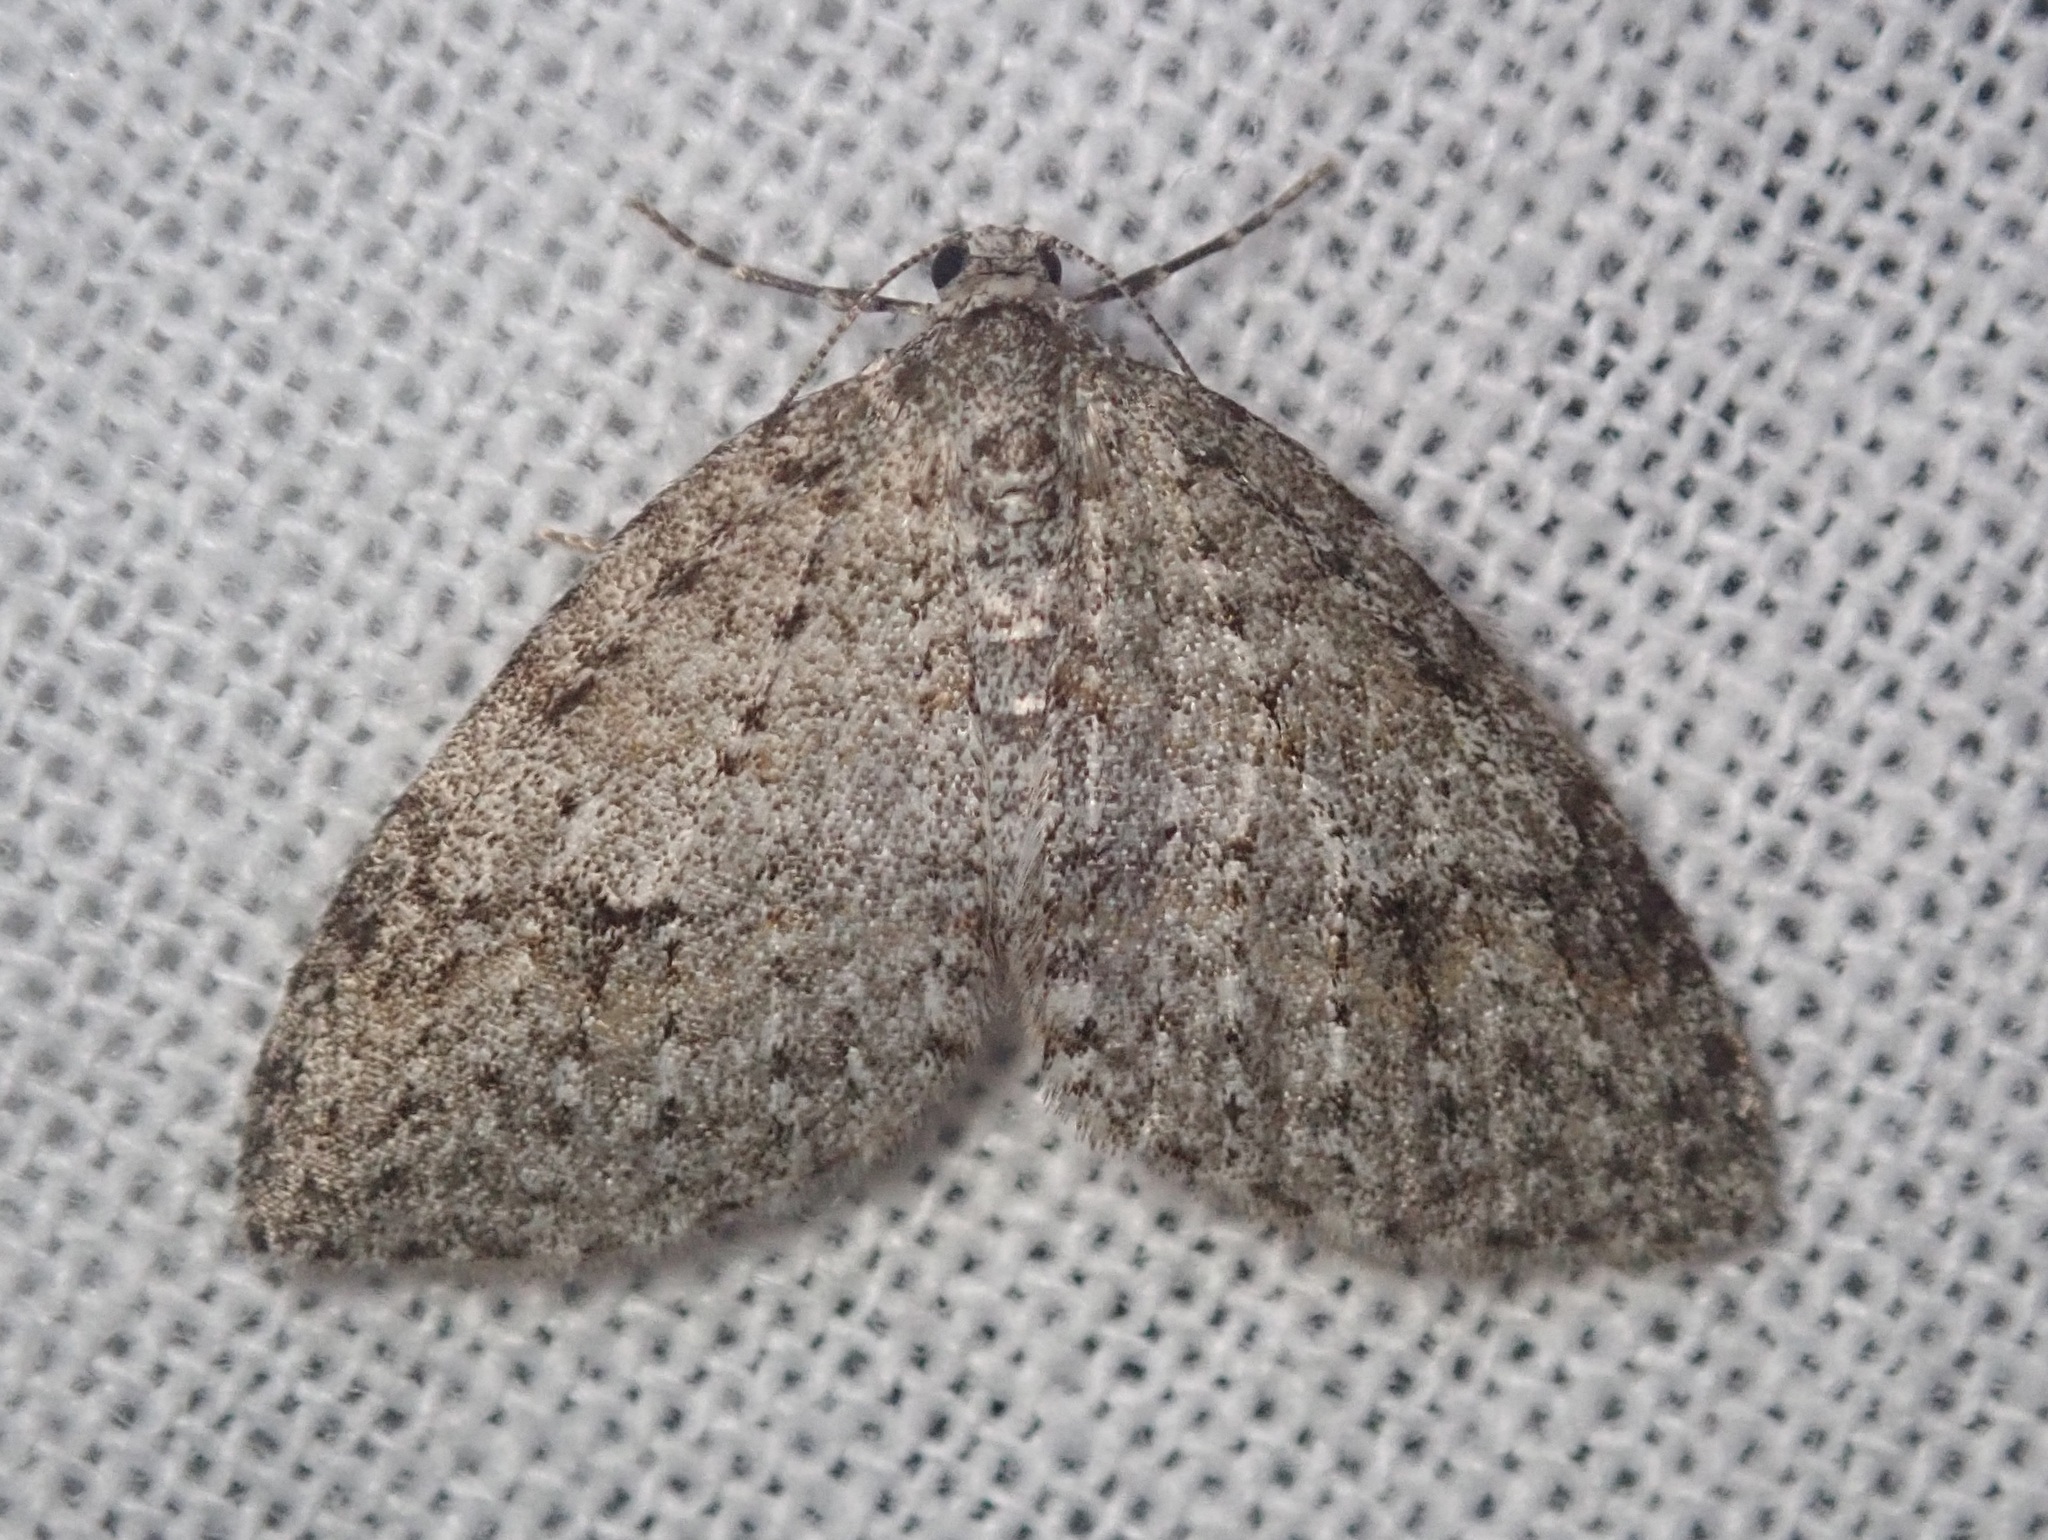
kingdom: Animalia
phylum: Arthropoda
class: Insecta
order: Lepidoptera
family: Geometridae
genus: Venusia
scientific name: Venusia
